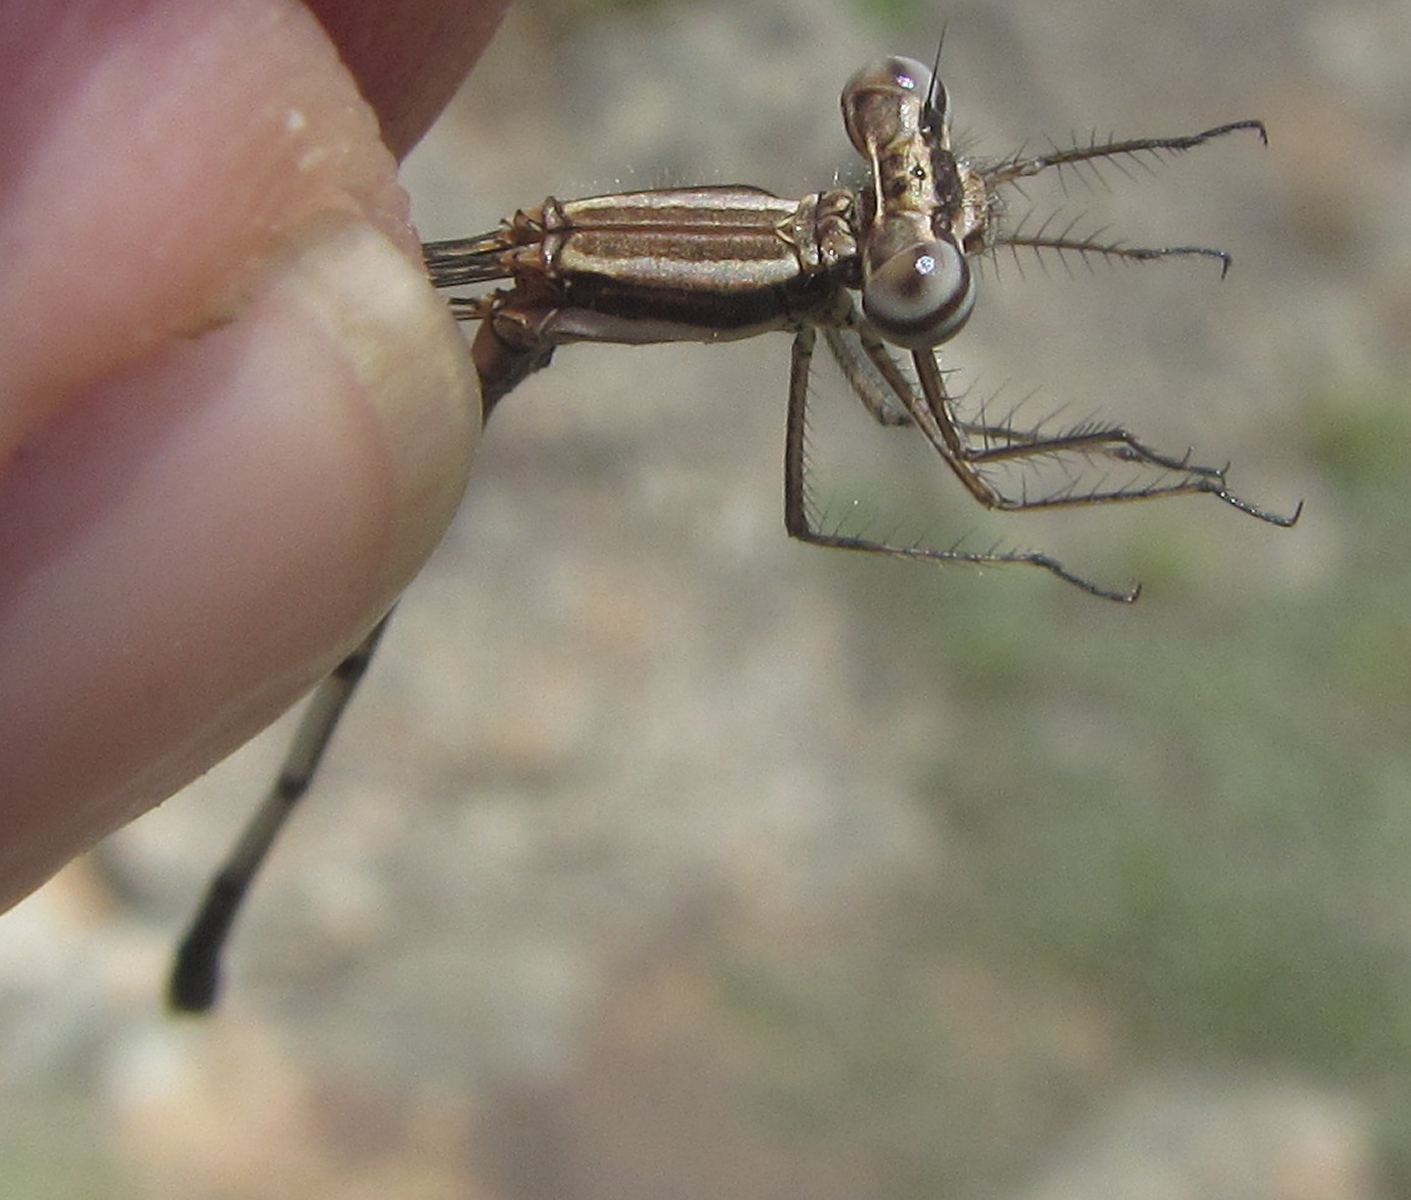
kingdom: Animalia
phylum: Arthropoda
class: Insecta
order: Odonata
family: Platycnemididae
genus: Elattoneura
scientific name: Elattoneura glauca
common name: Common threadtail
